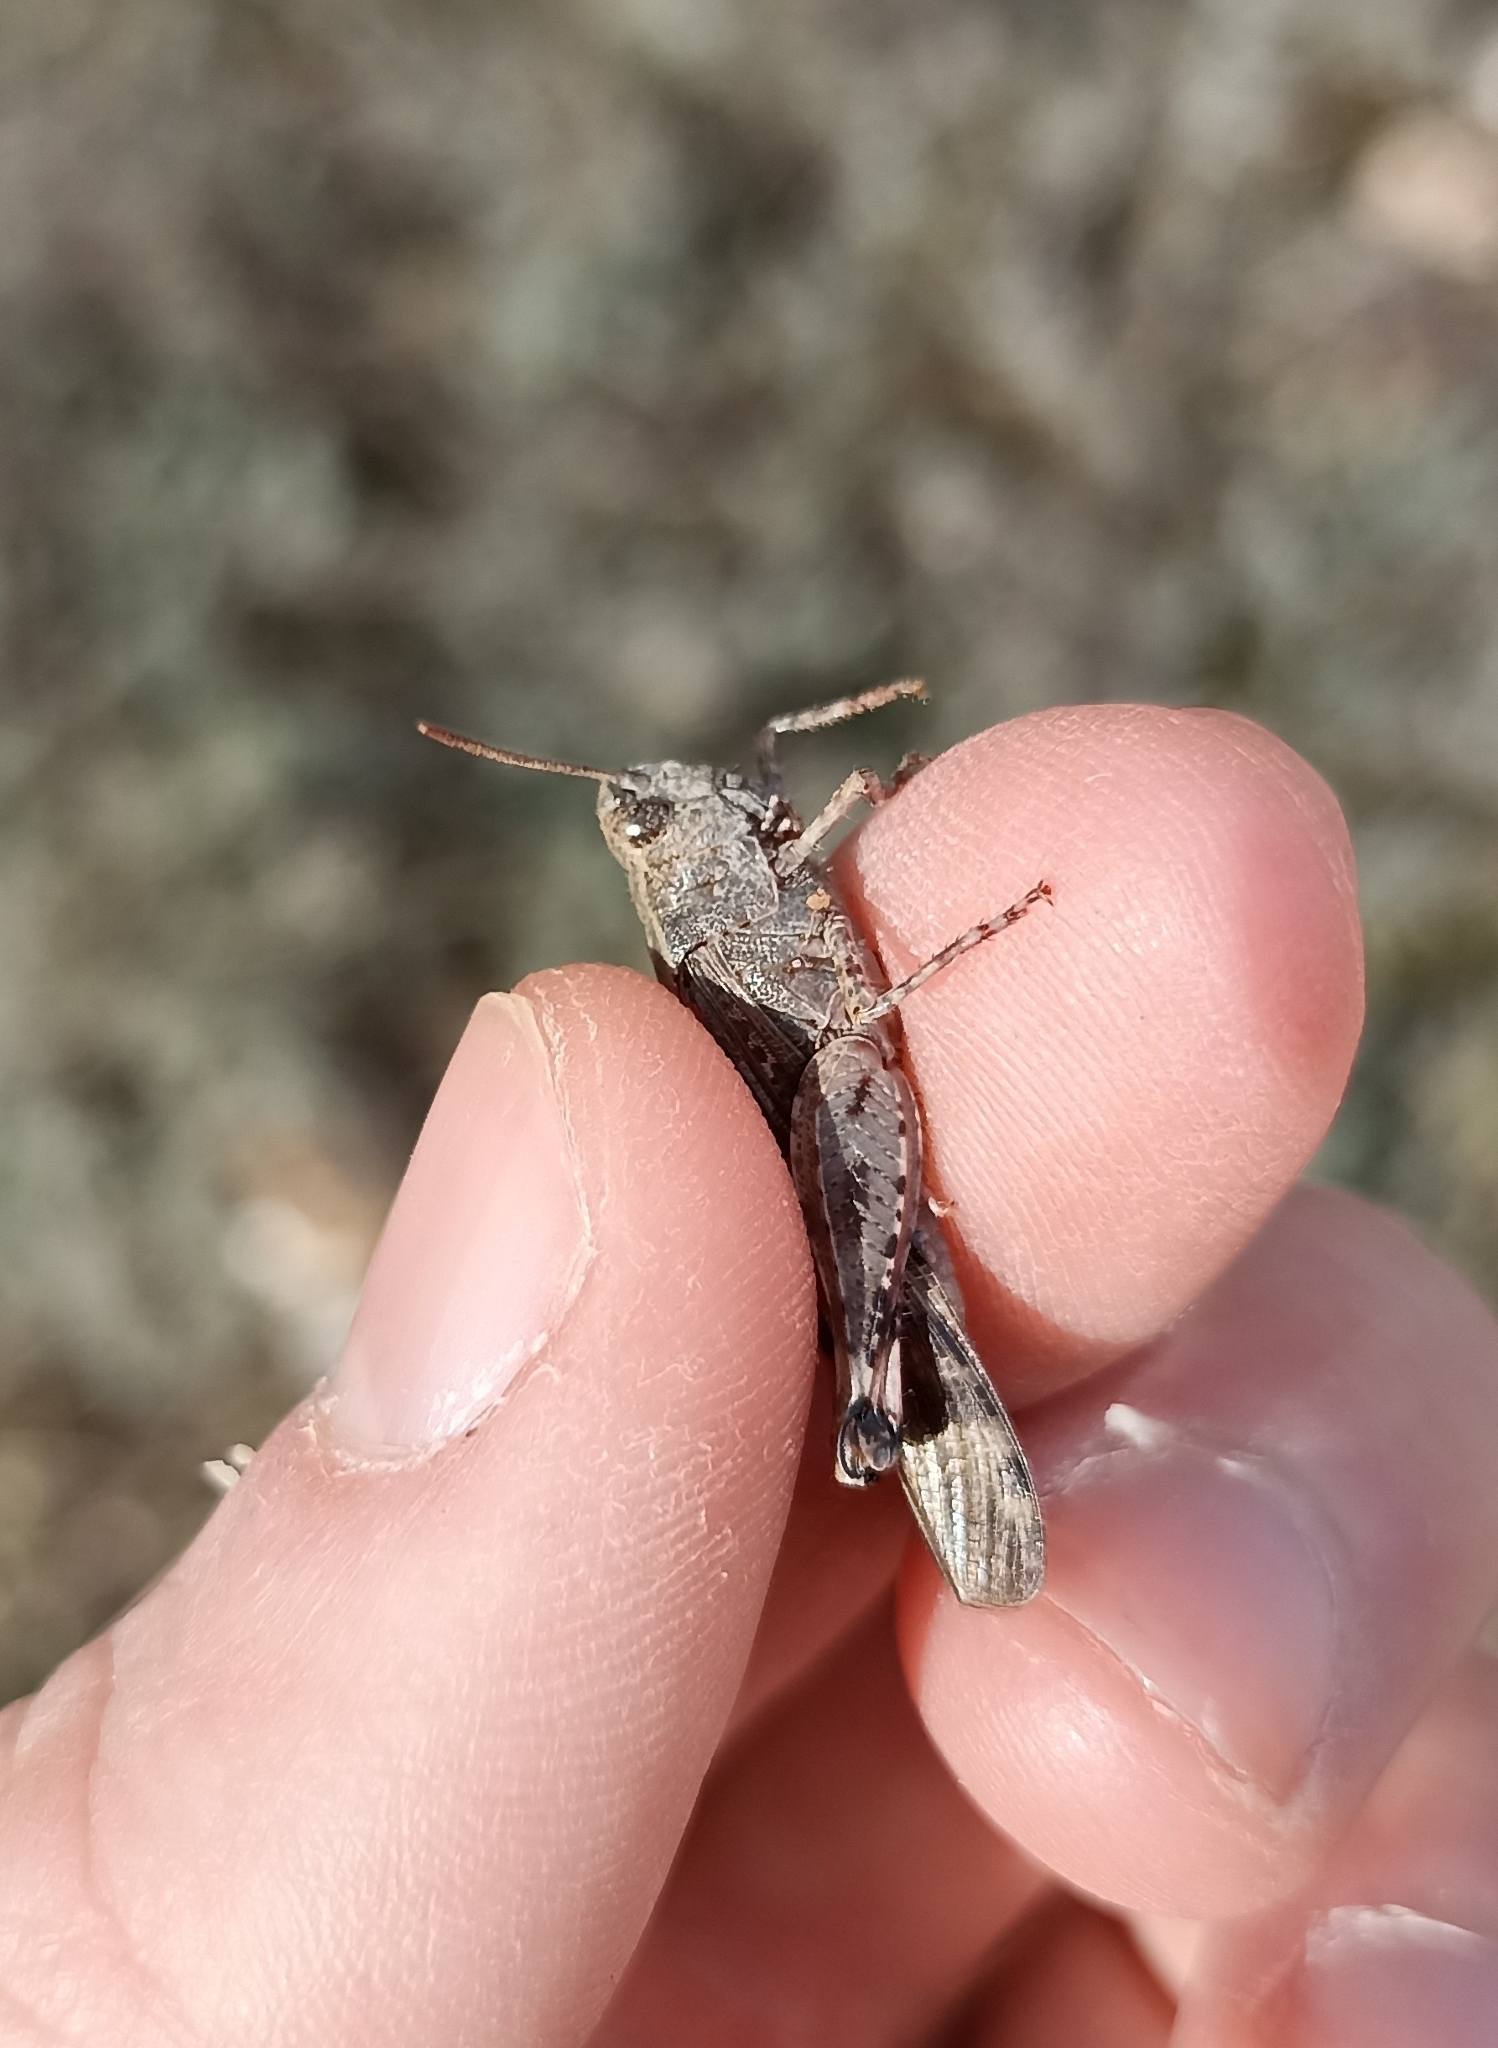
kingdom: Animalia
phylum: Arthropoda
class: Insecta
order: Orthoptera
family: Acrididae
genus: Aiolopus
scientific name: Aiolopus strepens
